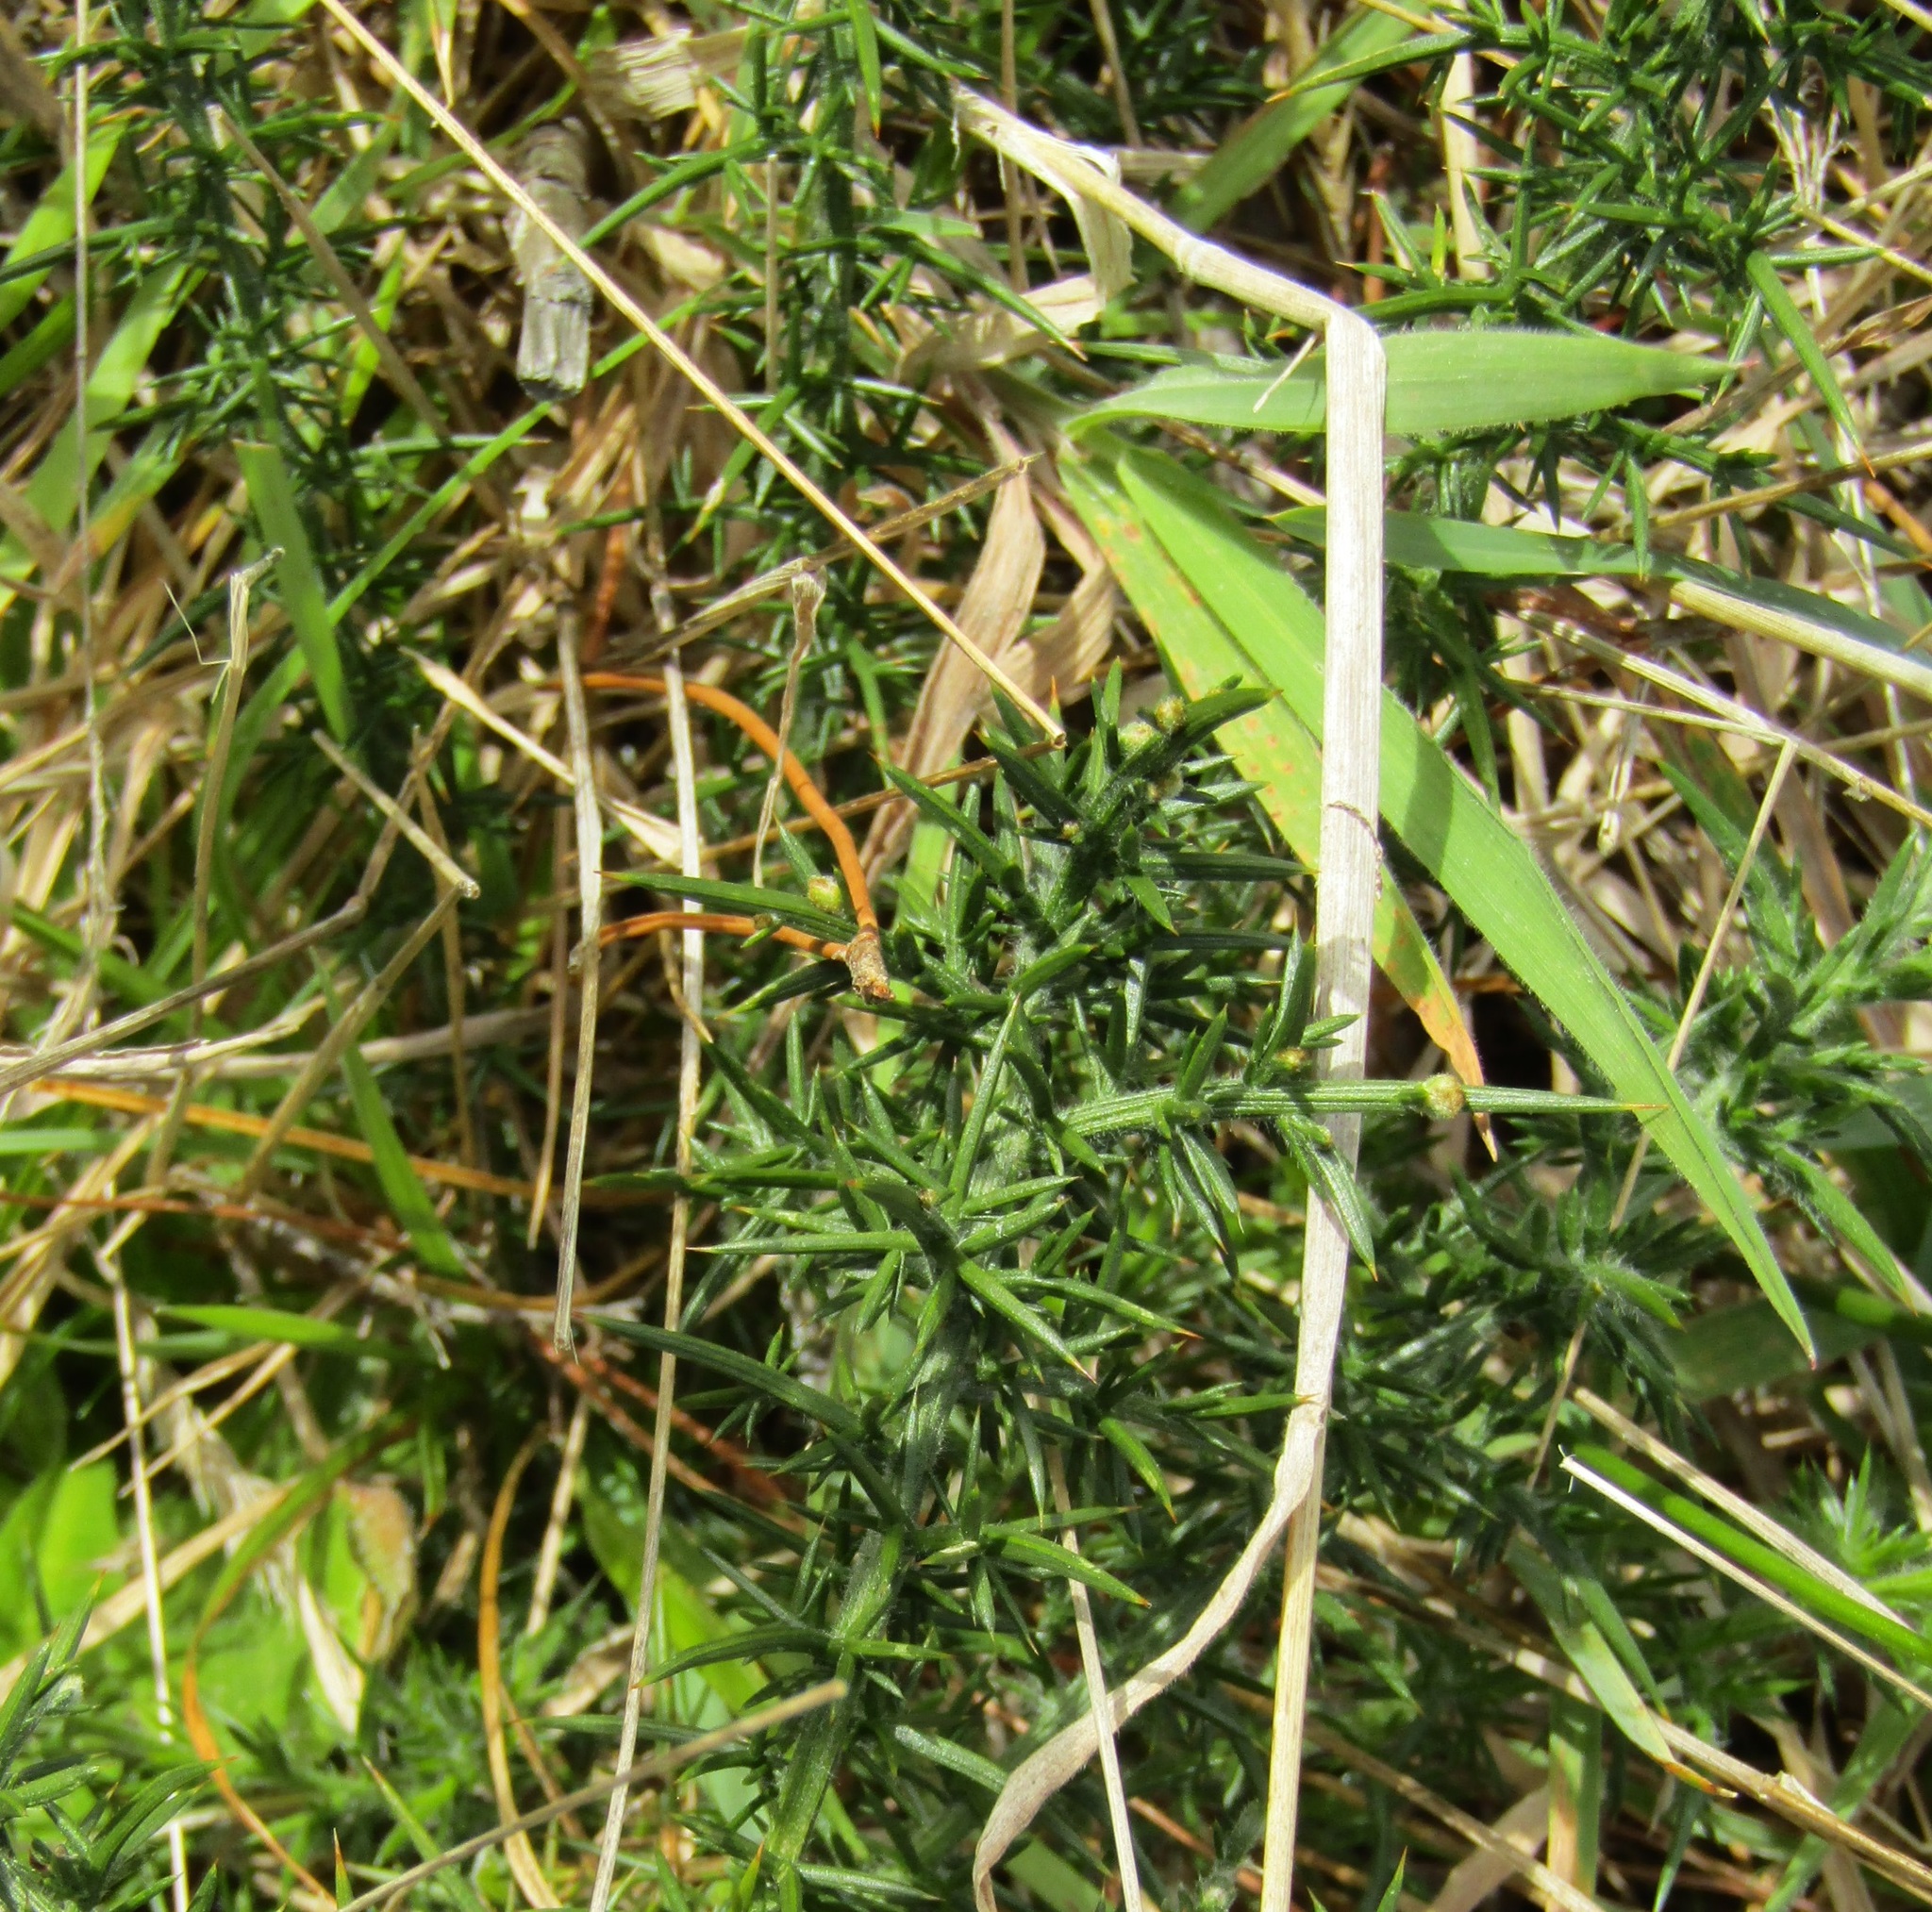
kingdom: Plantae
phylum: Tracheophyta
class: Magnoliopsida
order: Fabales
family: Fabaceae
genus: Ulex
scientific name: Ulex europaeus
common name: Common gorse
